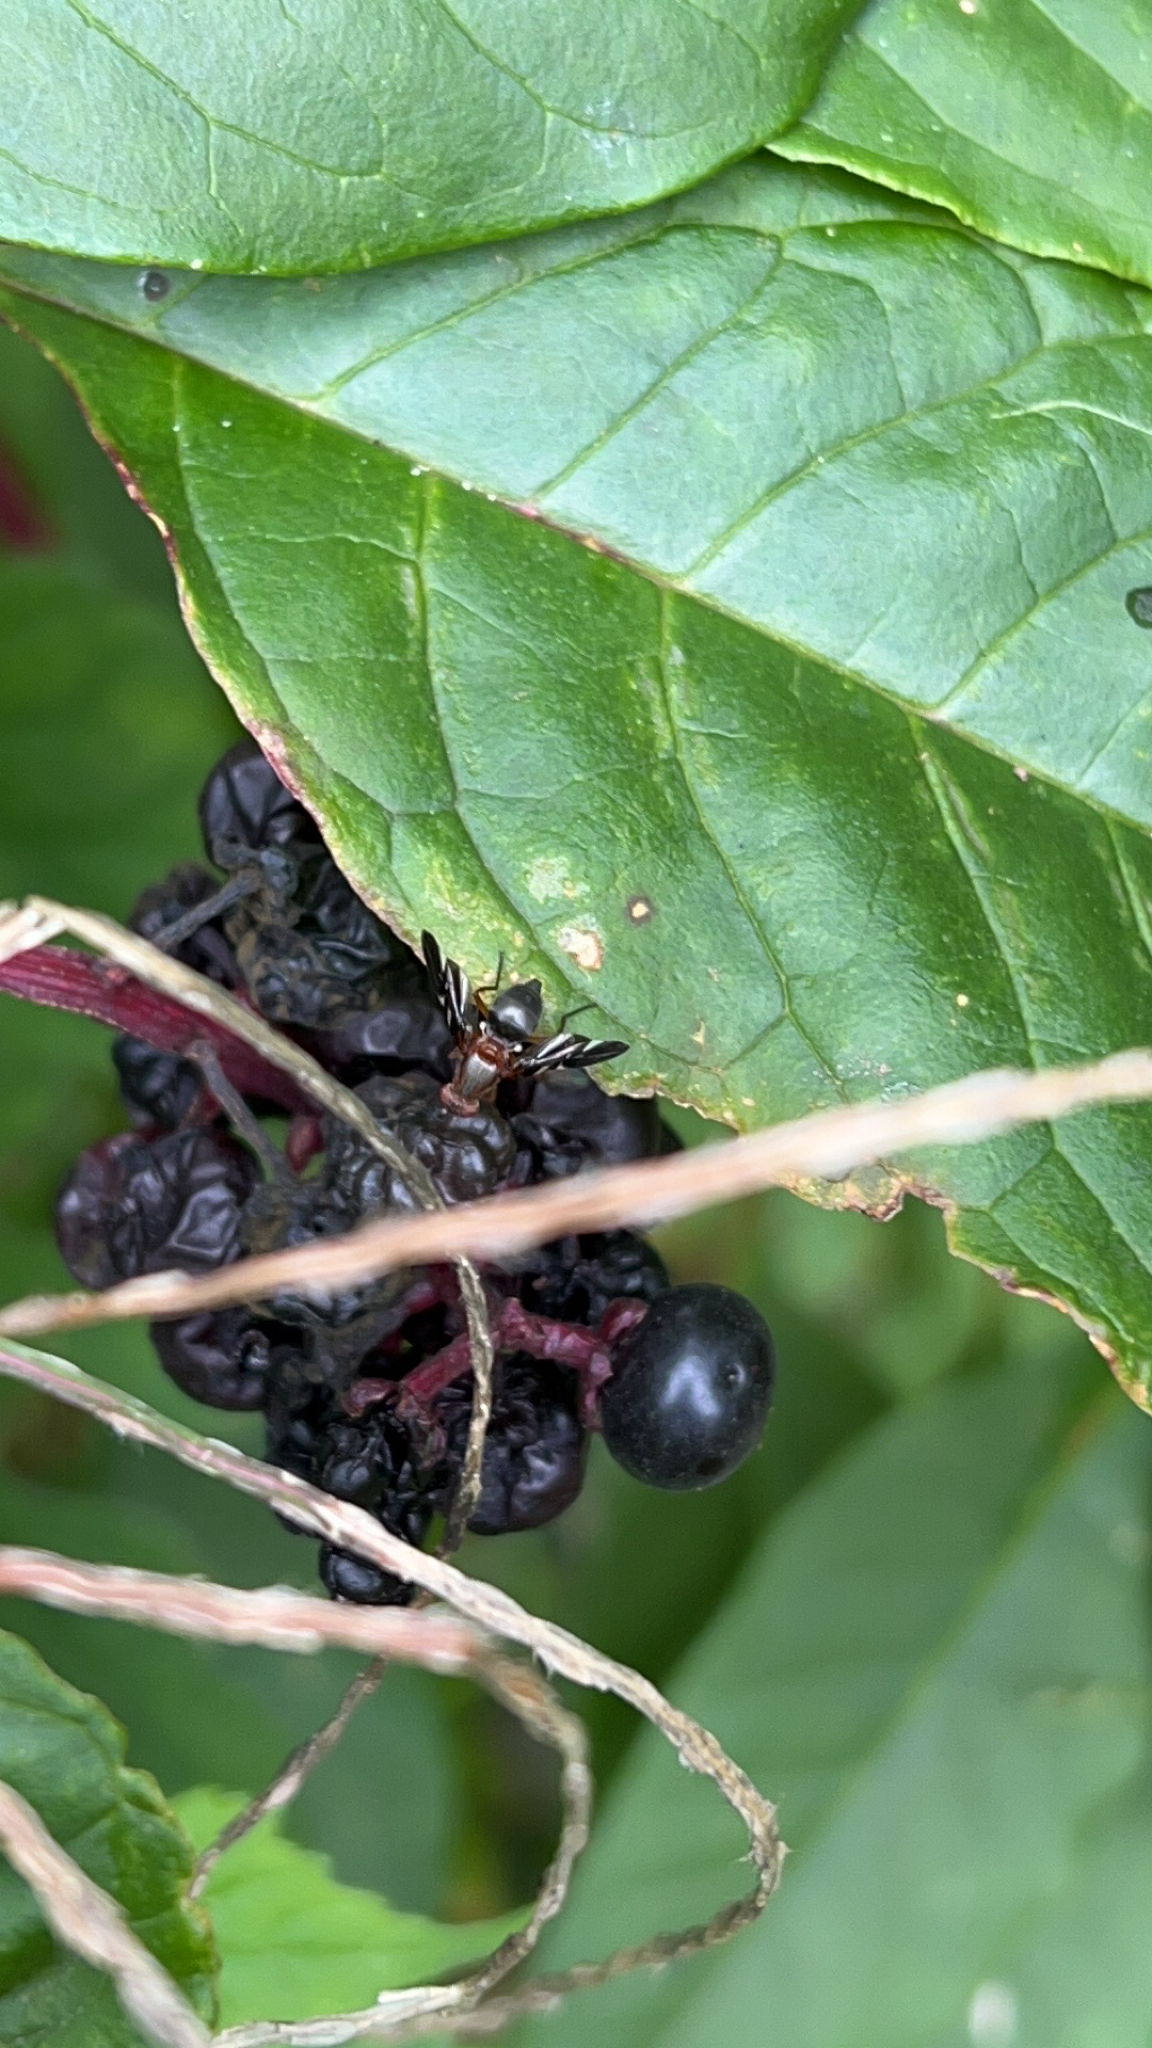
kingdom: Animalia
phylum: Arthropoda
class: Insecta
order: Diptera
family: Ulidiidae
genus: Delphinia
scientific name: Delphinia picta
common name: Common picture-winged fly
